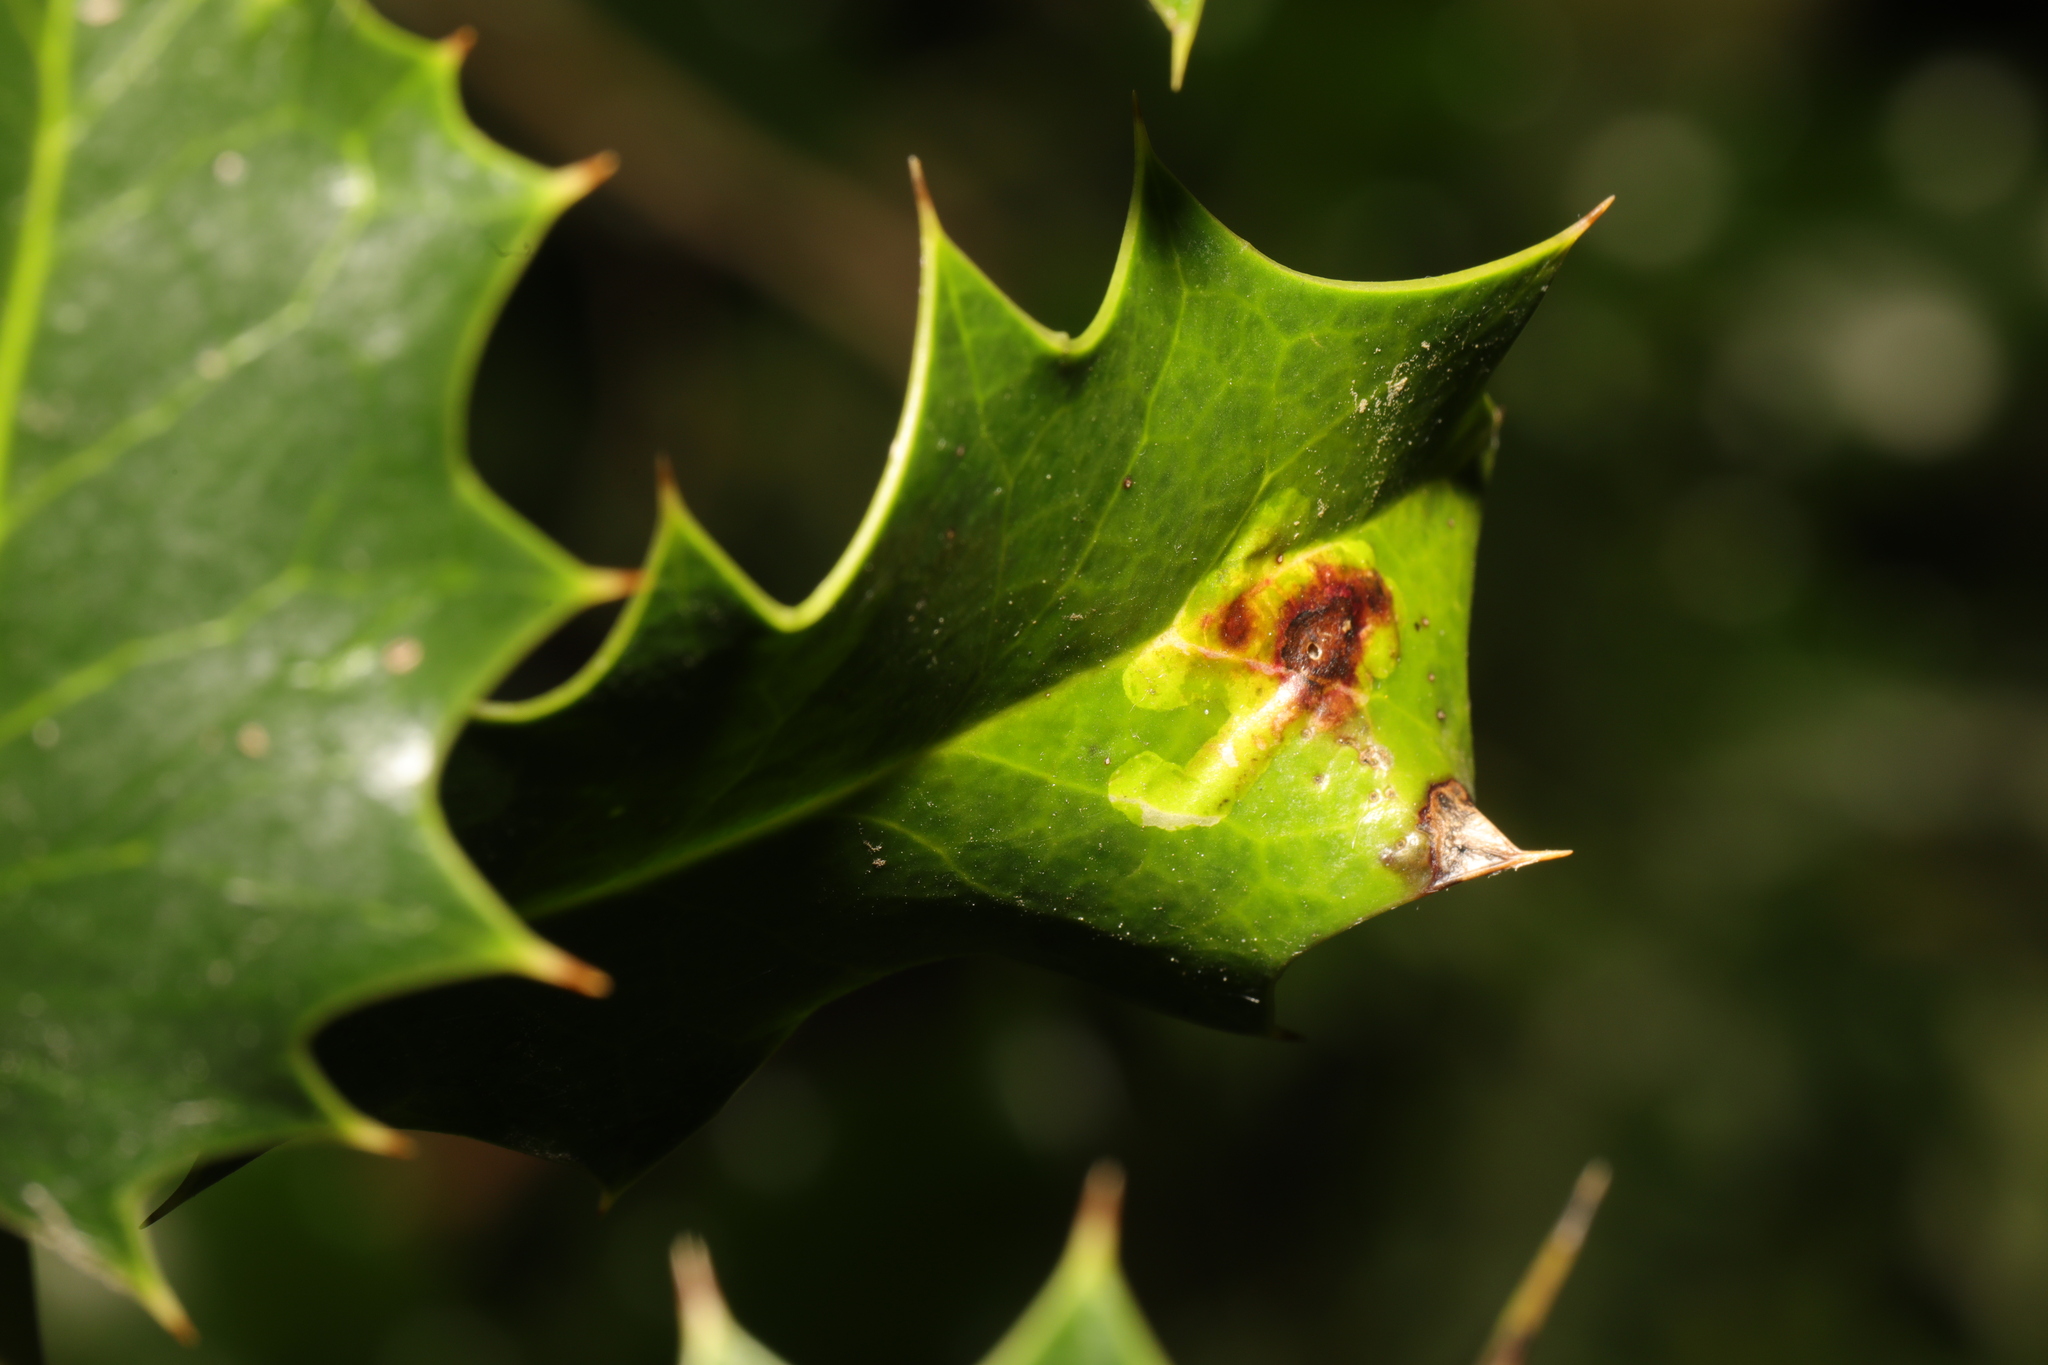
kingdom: Animalia
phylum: Arthropoda
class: Insecta
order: Diptera
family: Agromyzidae
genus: Phytomyza
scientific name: Phytomyza ilicis
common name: Holly leafminer
